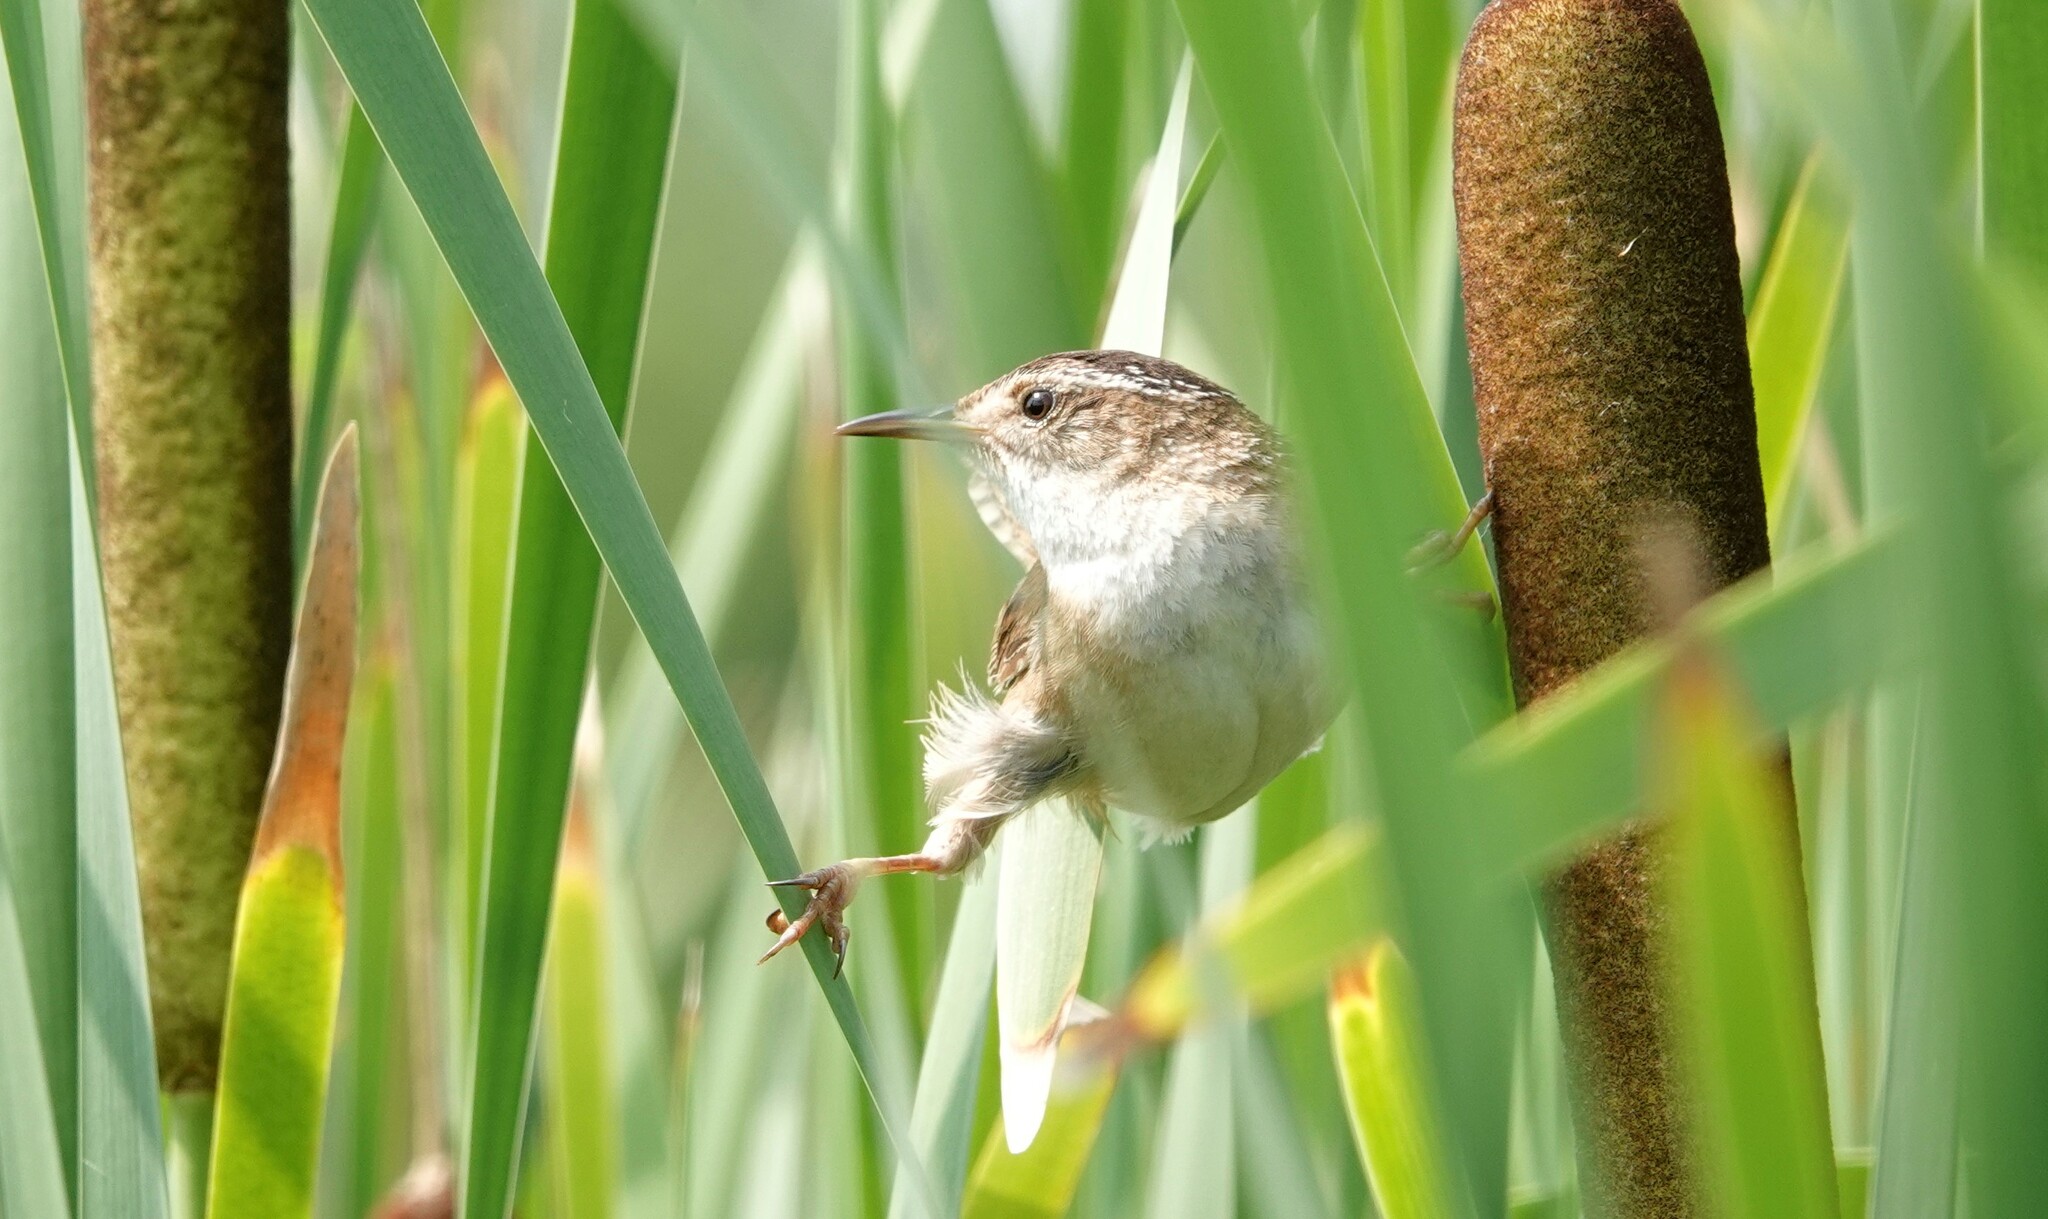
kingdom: Animalia
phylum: Chordata
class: Aves
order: Passeriformes
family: Troglodytidae
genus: Cistothorus
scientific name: Cistothorus palustris
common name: Marsh wren
